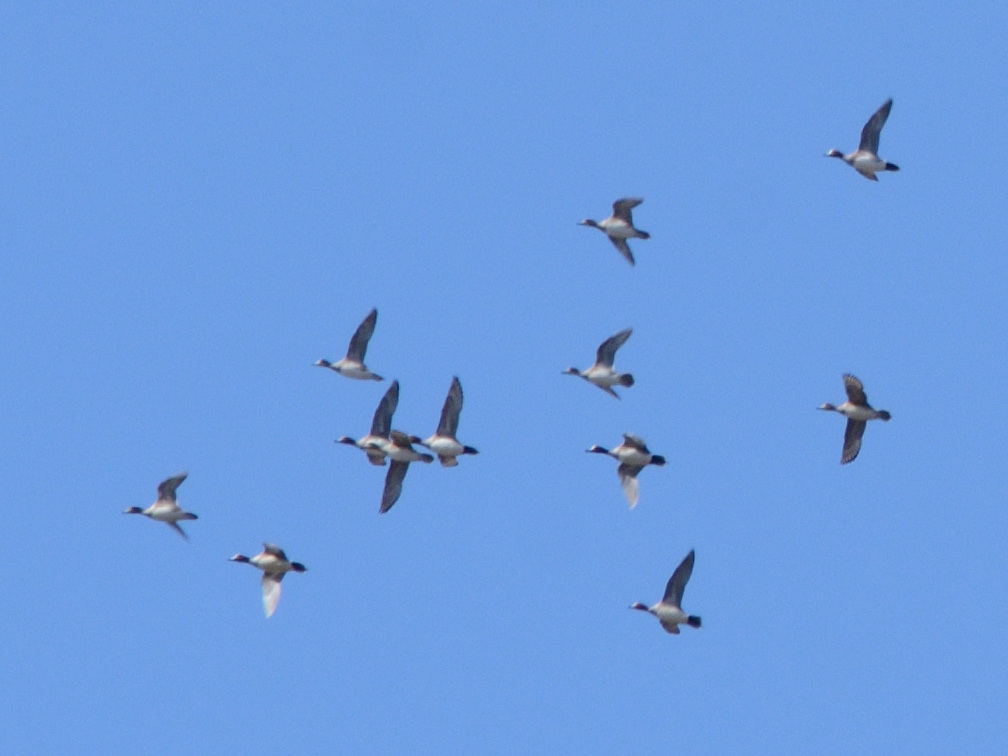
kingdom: Animalia
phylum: Chordata
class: Aves
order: Anseriformes
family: Anatidae
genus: Mareca
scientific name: Mareca penelope
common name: Eurasian wigeon
